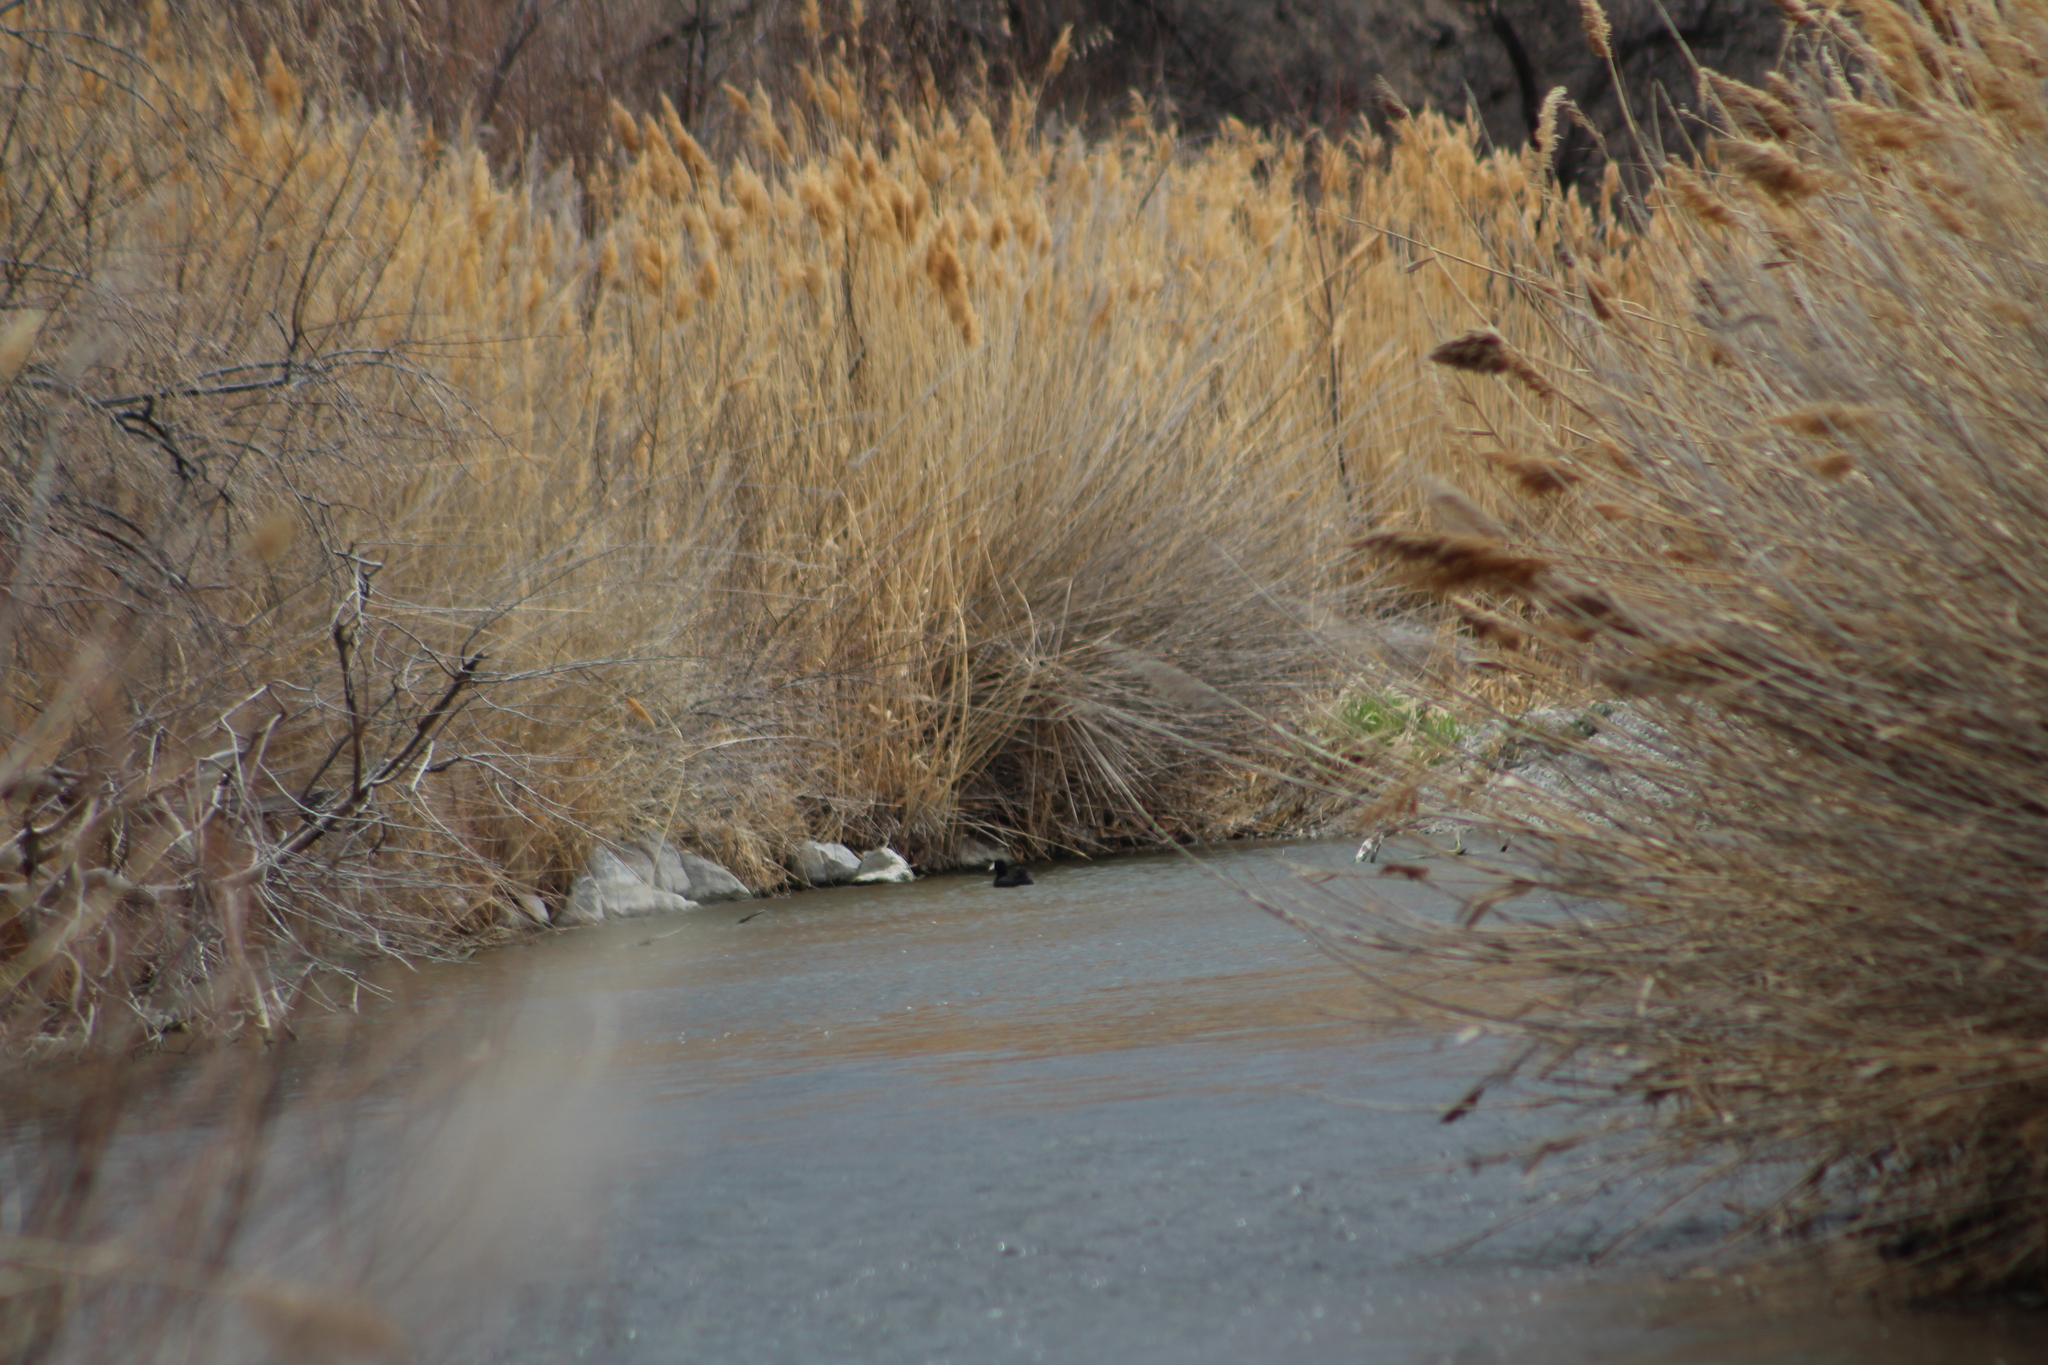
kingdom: Animalia
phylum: Chordata
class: Aves
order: Gruiformes
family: Rallidae
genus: Fulica
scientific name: Fulica americana
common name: American coot
